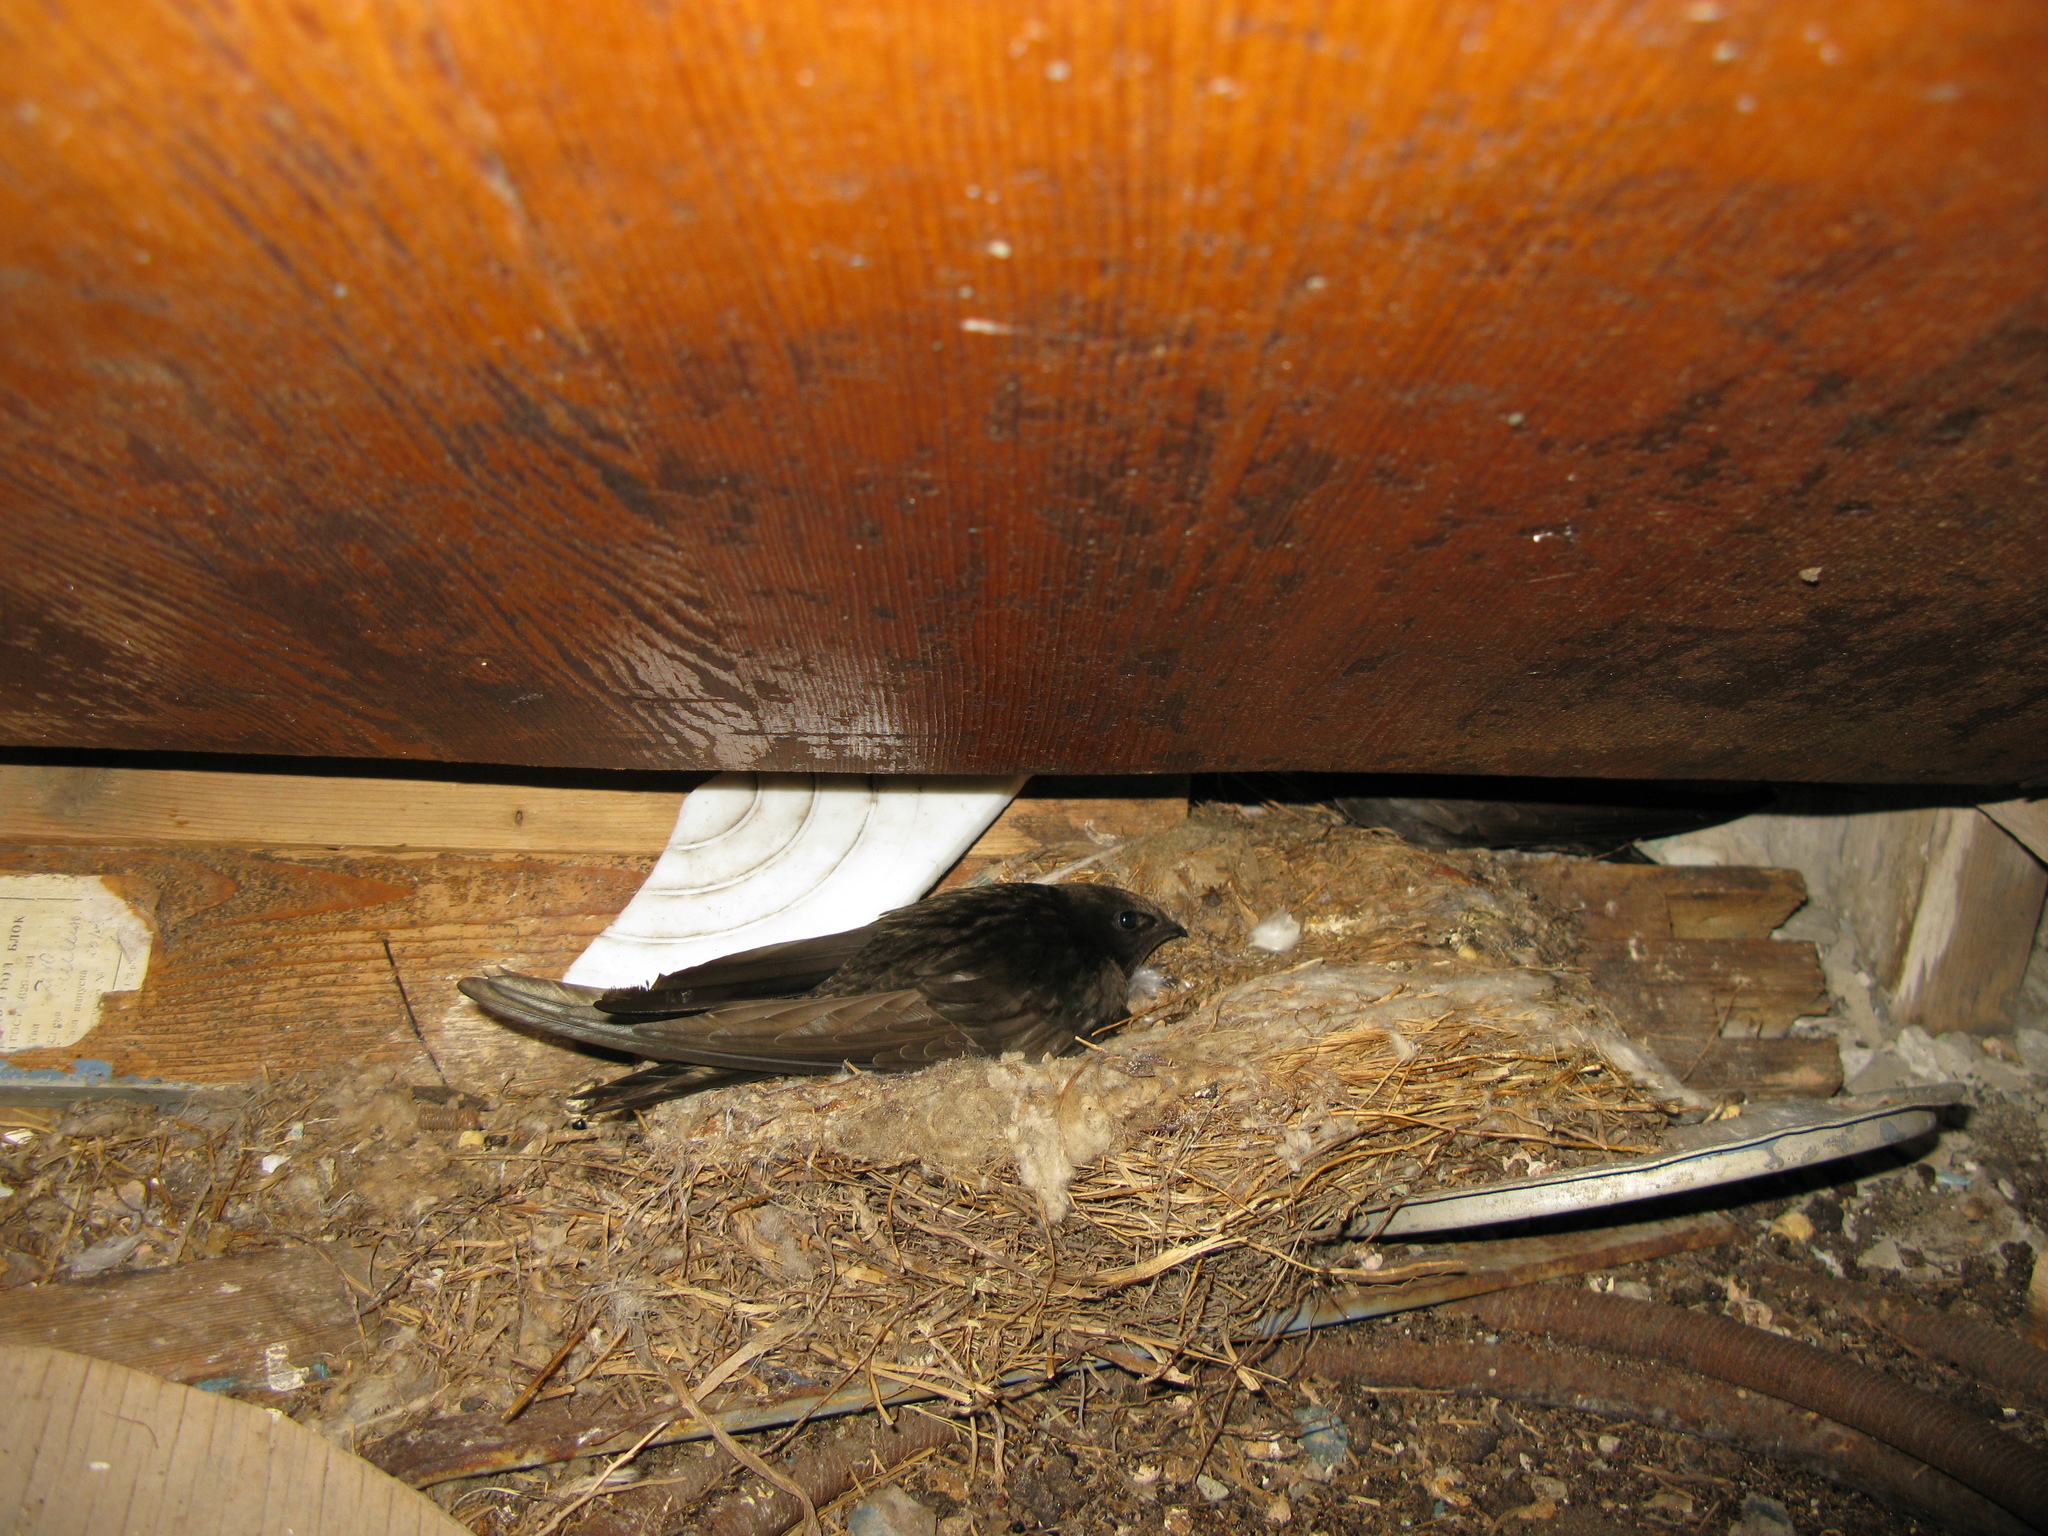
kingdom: Animalia
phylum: Chordata
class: Aves
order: Apodiformes
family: Apodidae
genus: Apus
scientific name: Apus apus
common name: Common swift
